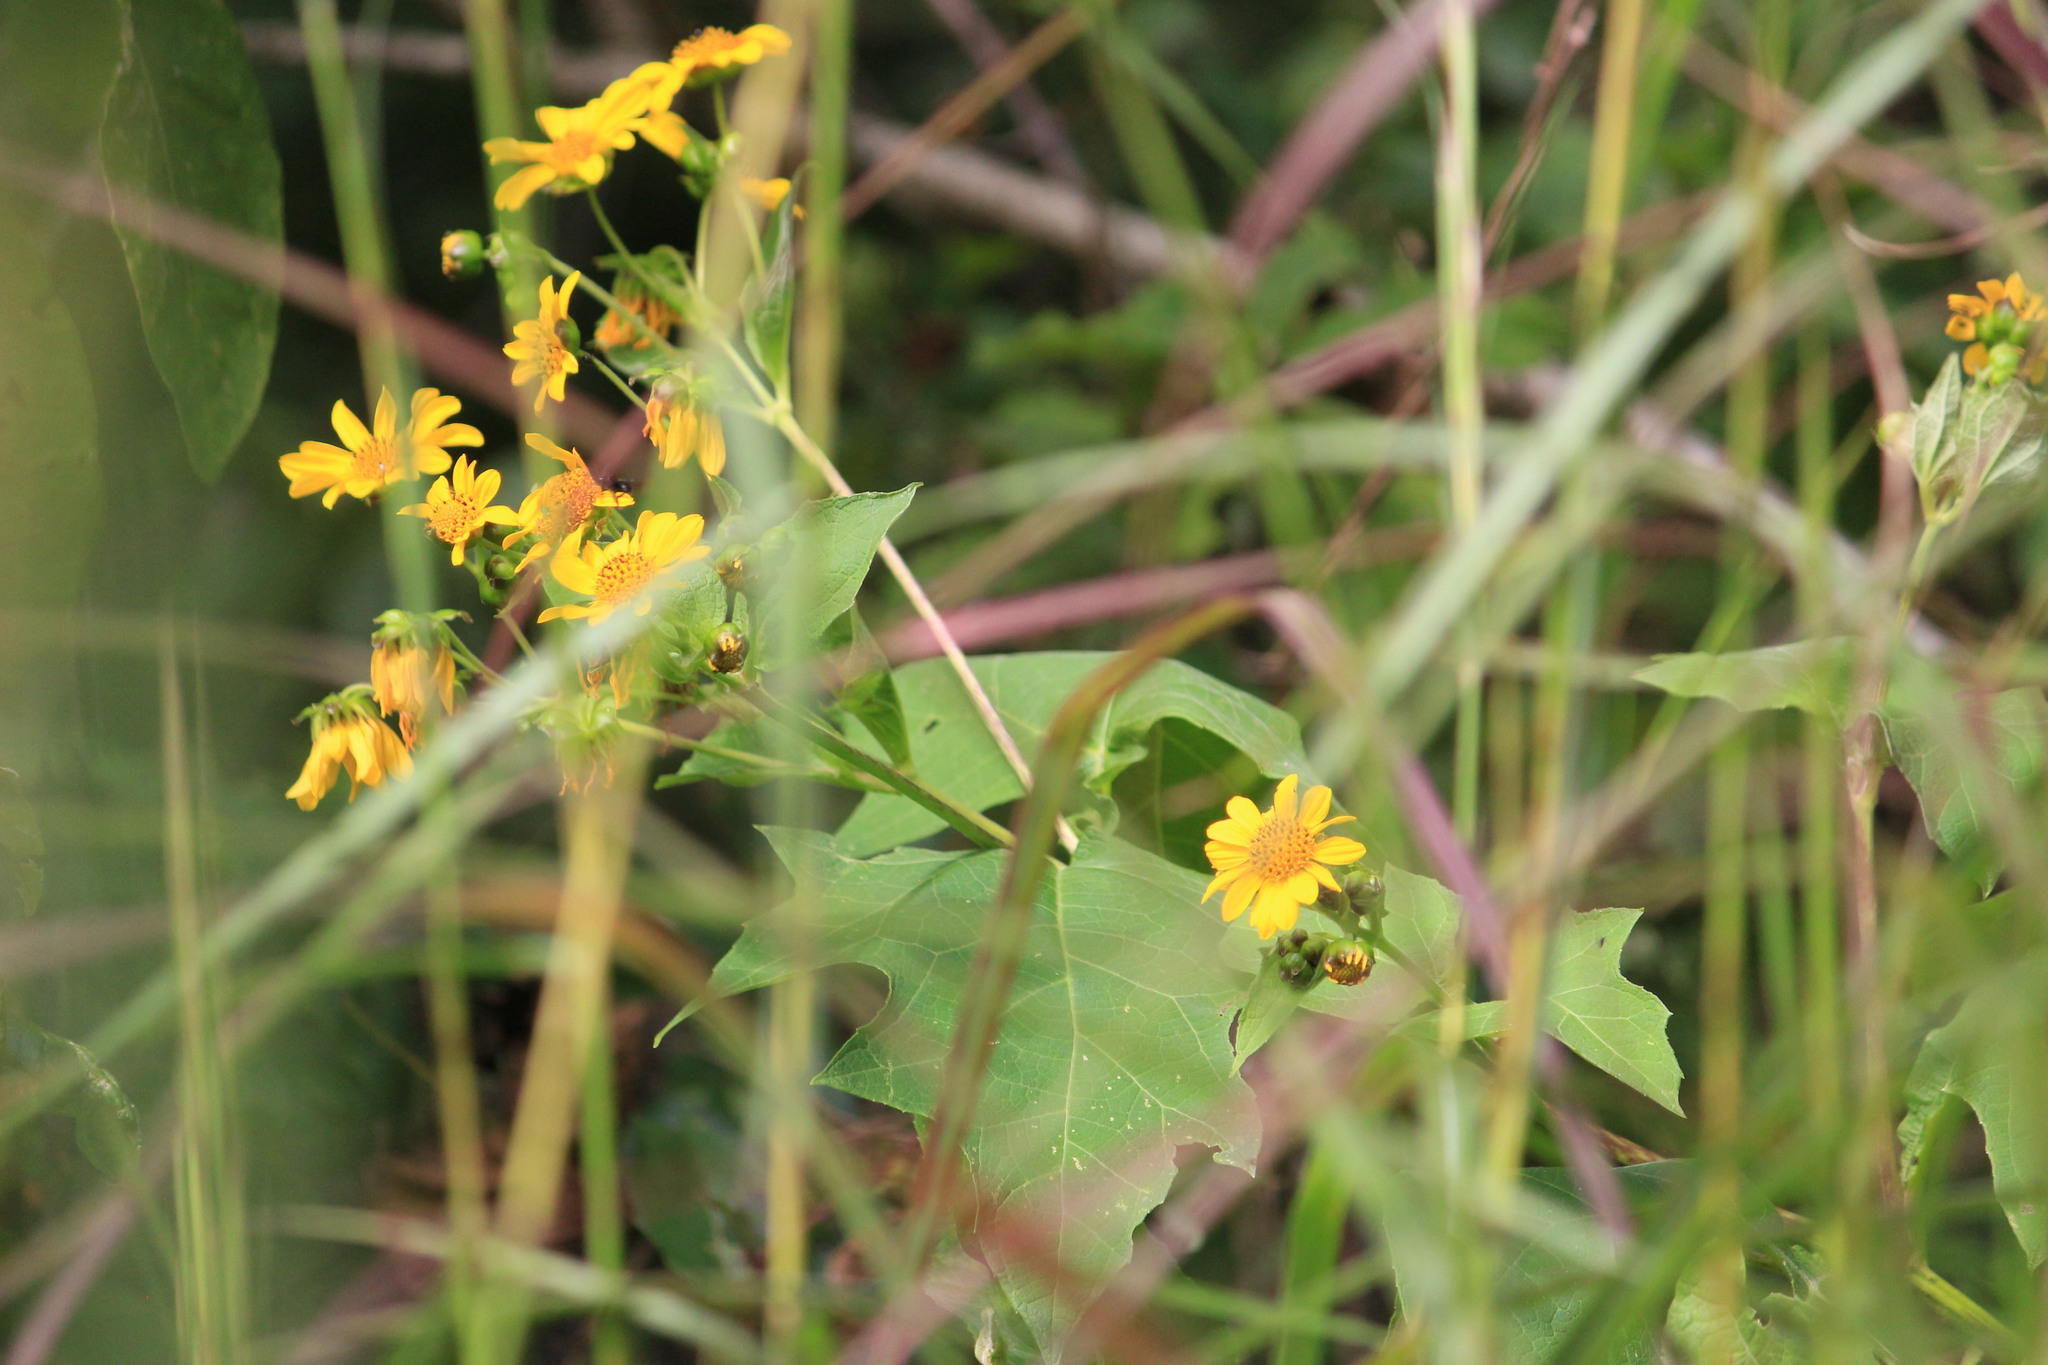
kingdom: Plantae
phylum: Tracheophyta
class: Magnoliopsida
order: Asterales
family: Asteraceae
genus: Smallanthus
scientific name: Smallanthus maculatus
